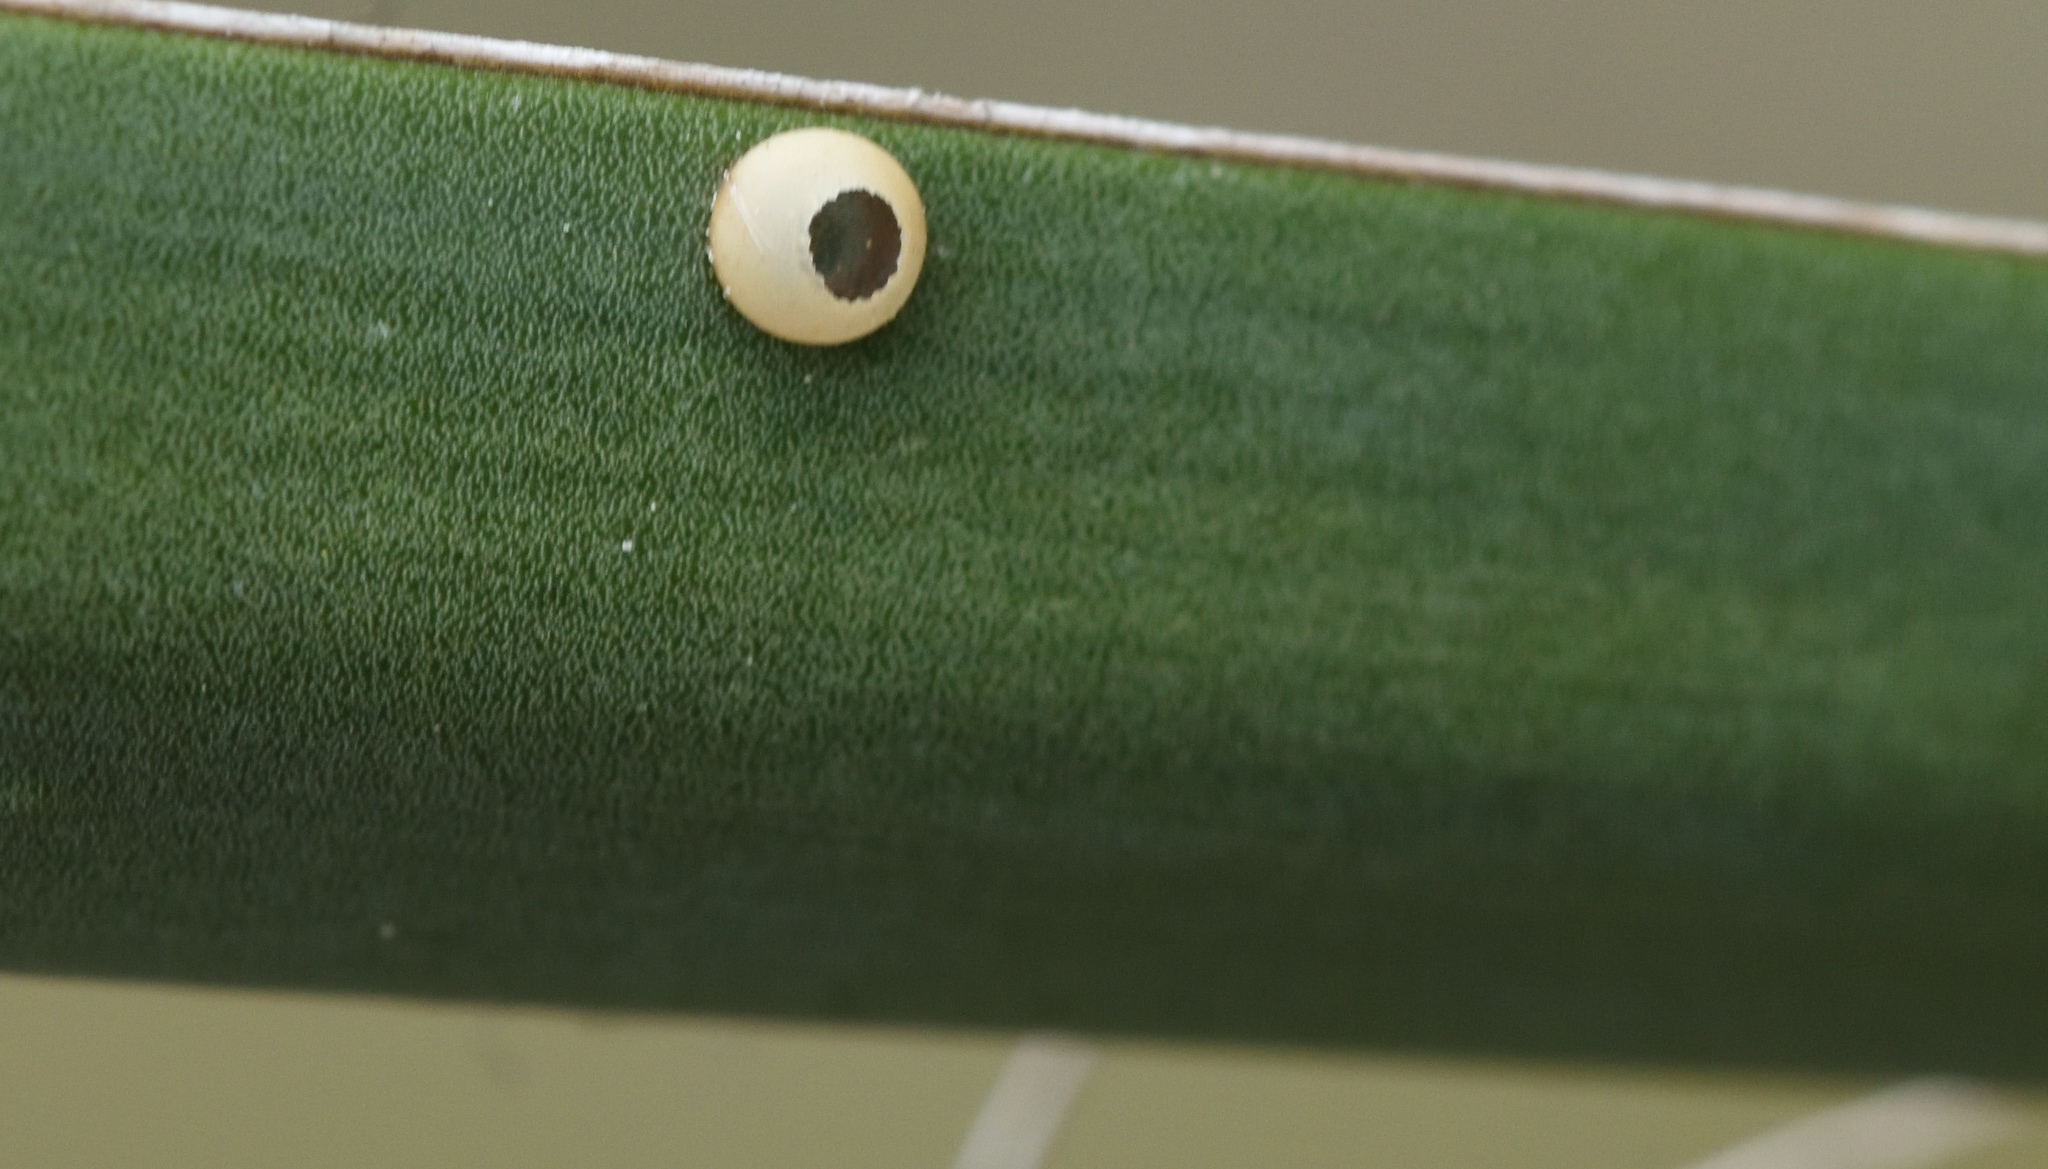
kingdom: Animalia
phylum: Arthropoda
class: Insecta
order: Lepidoptera
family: Hesperiidae
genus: Megathymus
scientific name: Megathymus yuccae
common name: Yucca giant-skipper
